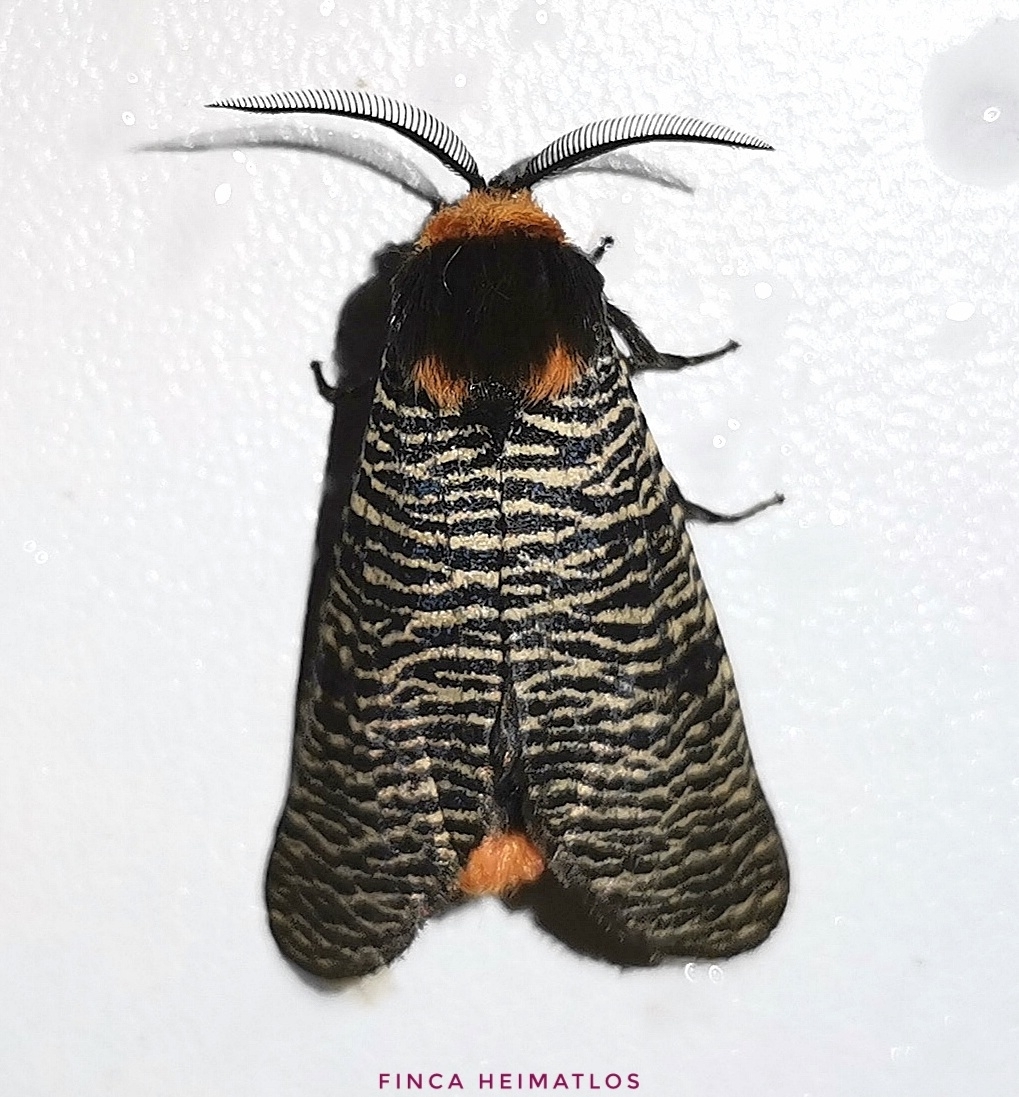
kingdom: Animalia
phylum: Arthropoda
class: Insecta
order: Lepidoptera
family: Erebidae
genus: Graphelysia
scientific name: Graphelysia strigillata
